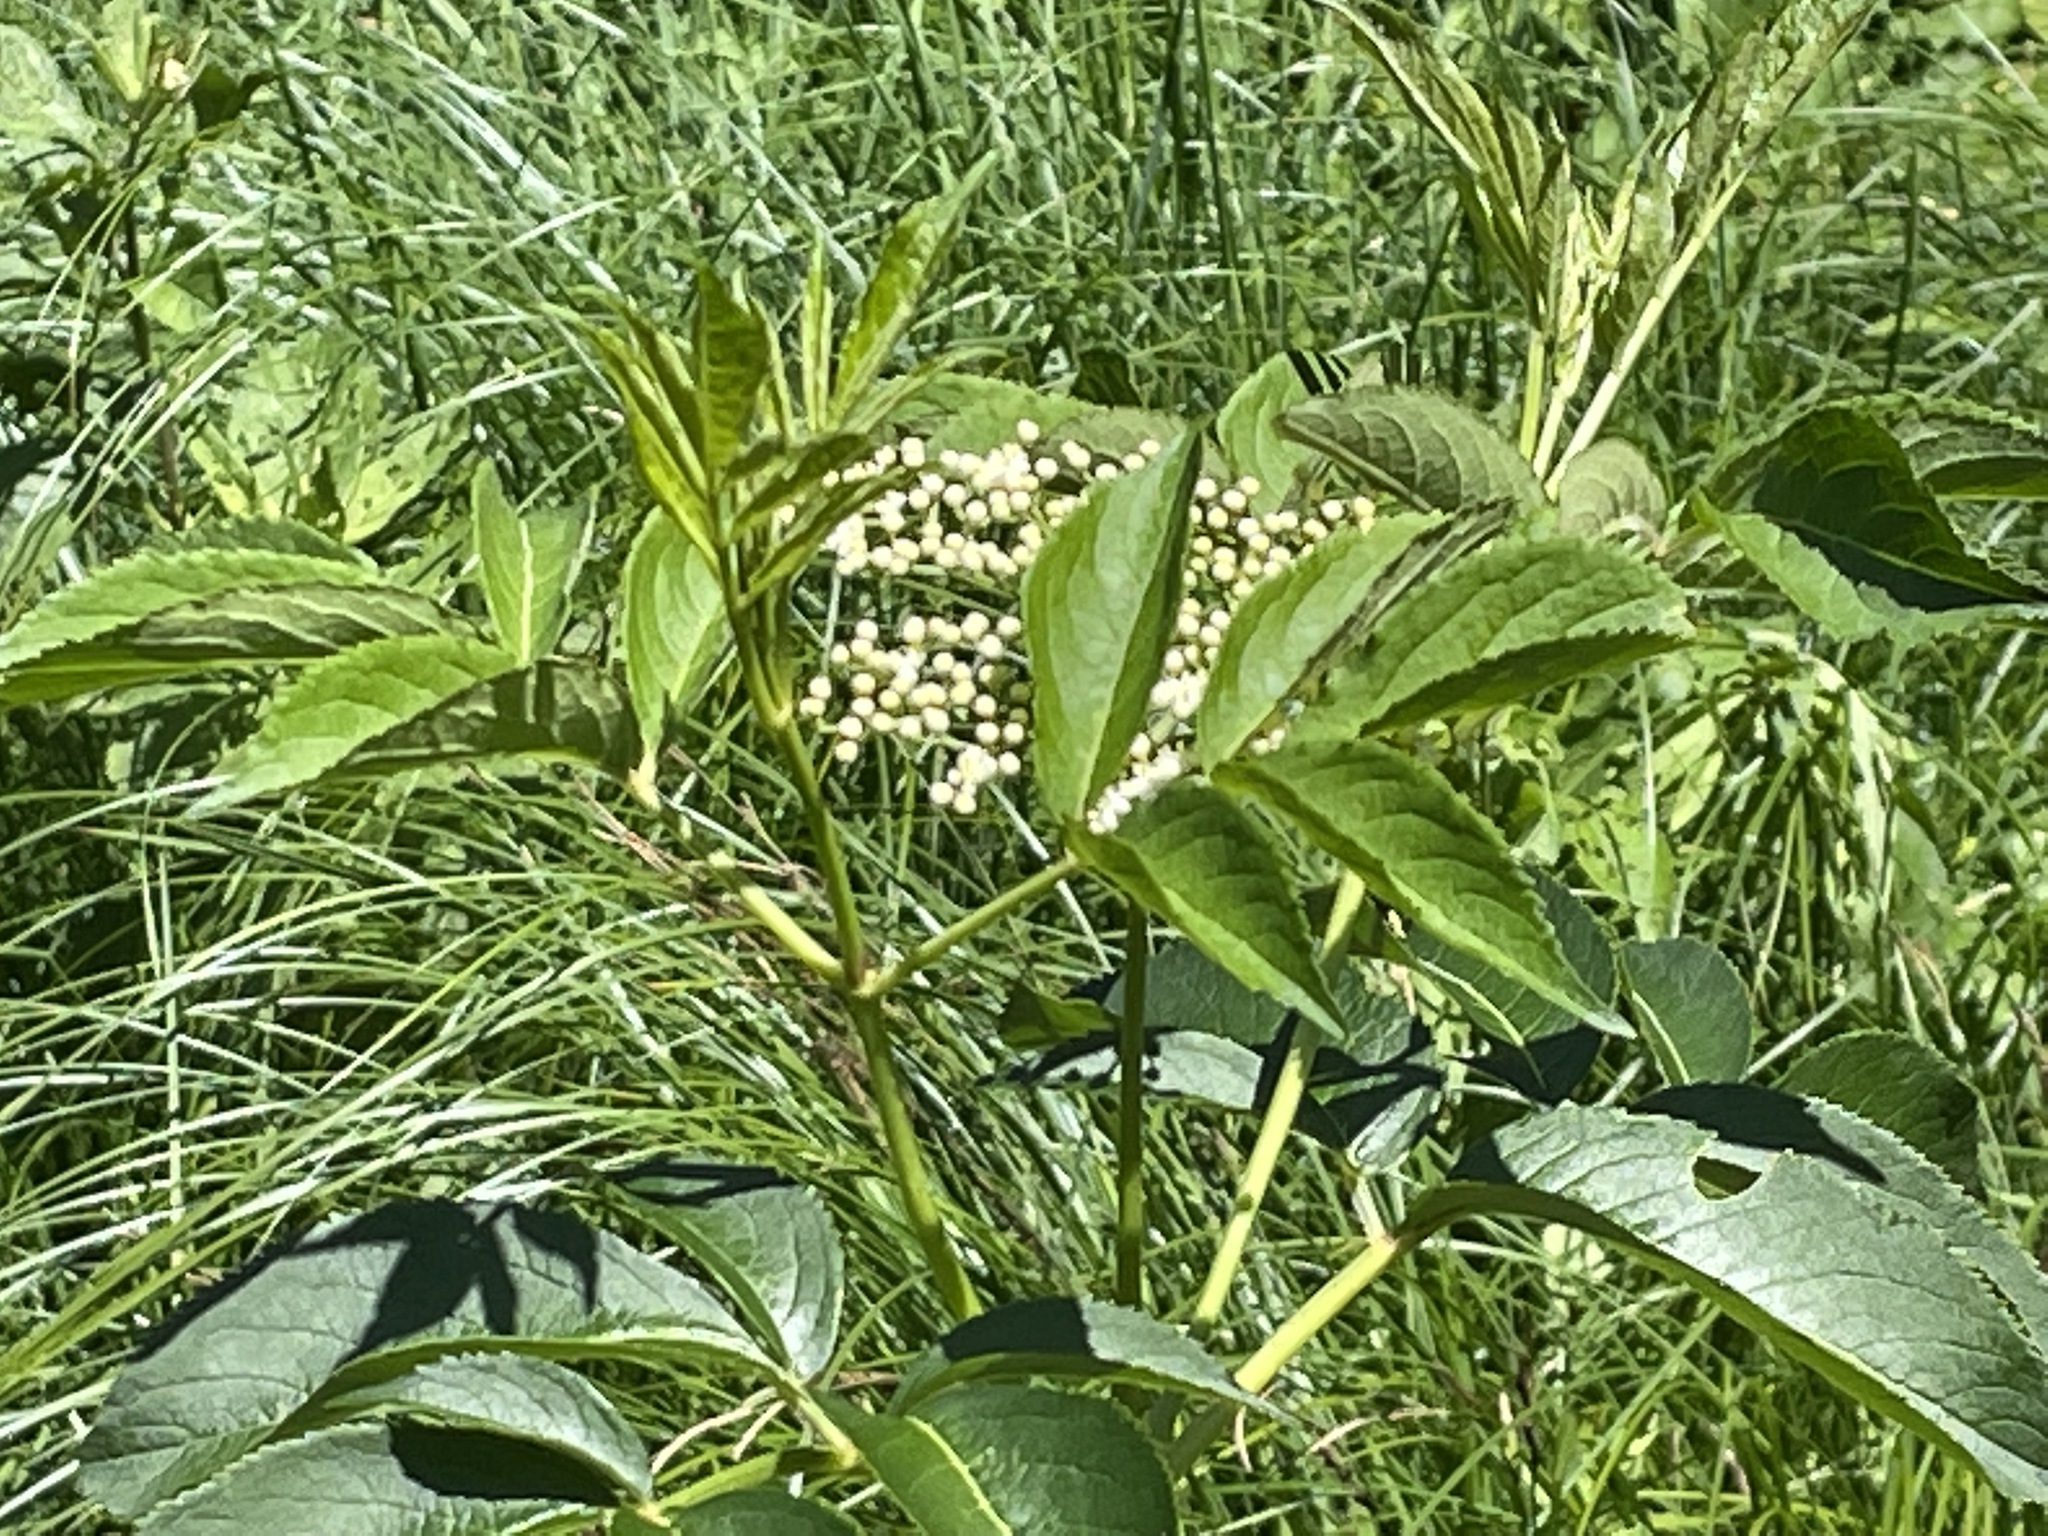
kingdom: Plantae
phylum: Tracheophyta
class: Magnoliopsida
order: Dipsacales
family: Viburnaceae
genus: Sambucus
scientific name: Sambucus canadensis
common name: American elder
